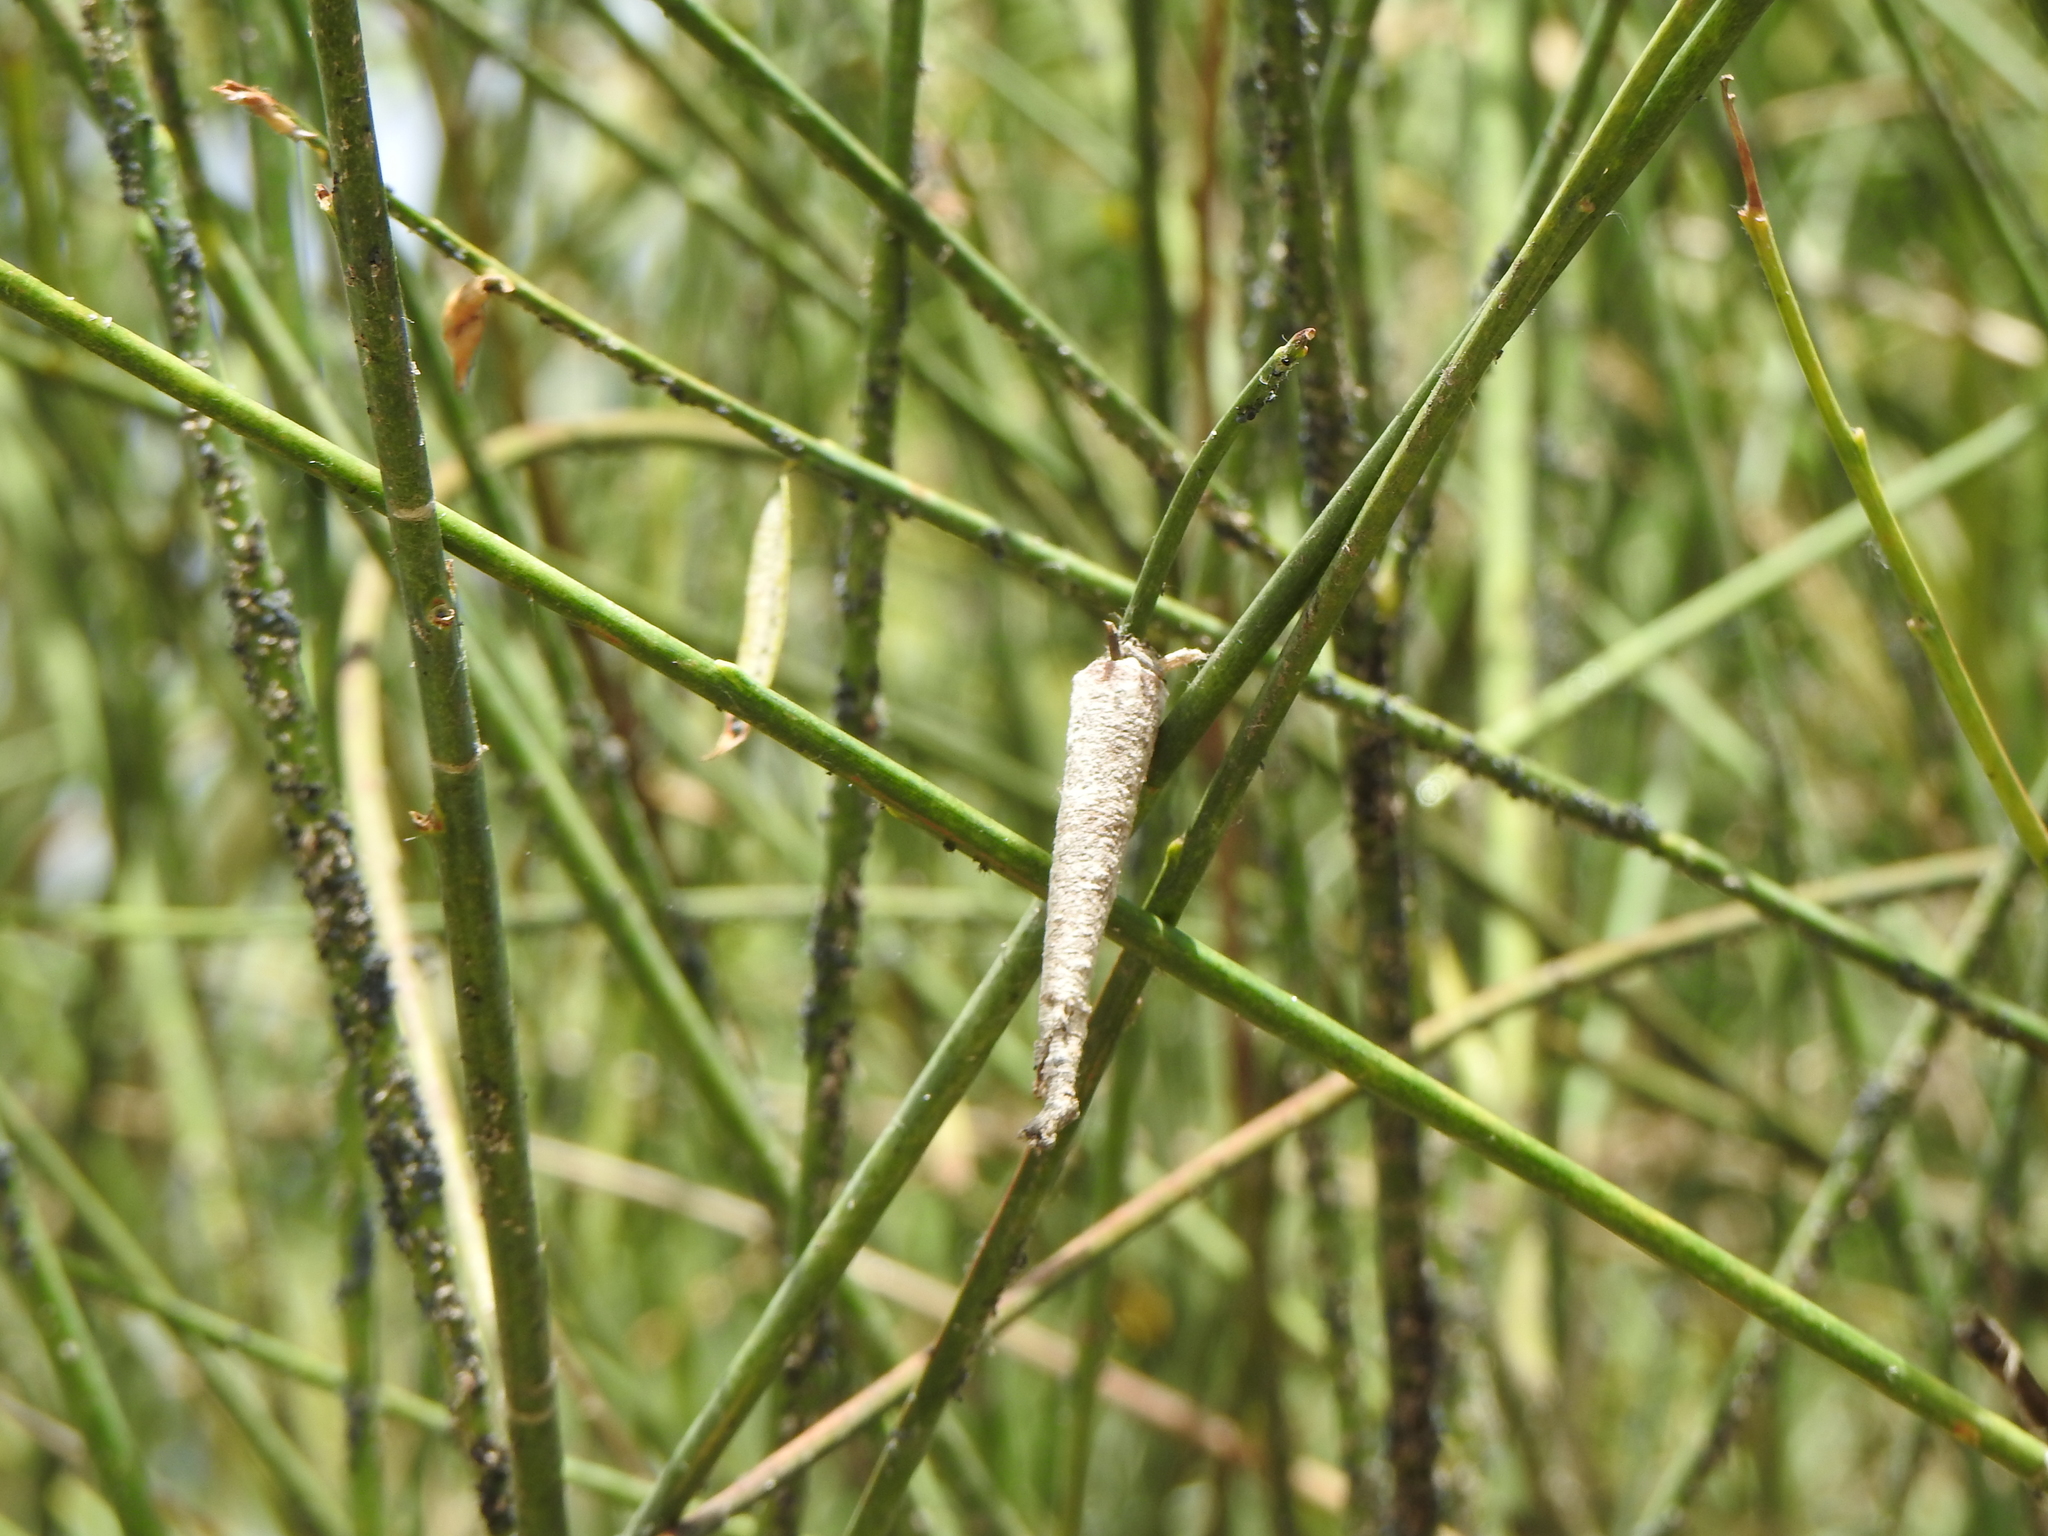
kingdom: Animalia
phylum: Arthropoda
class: Insecta
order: Lepidoptera
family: Psychidae
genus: Oiketicus
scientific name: Oiketicus geyeri
